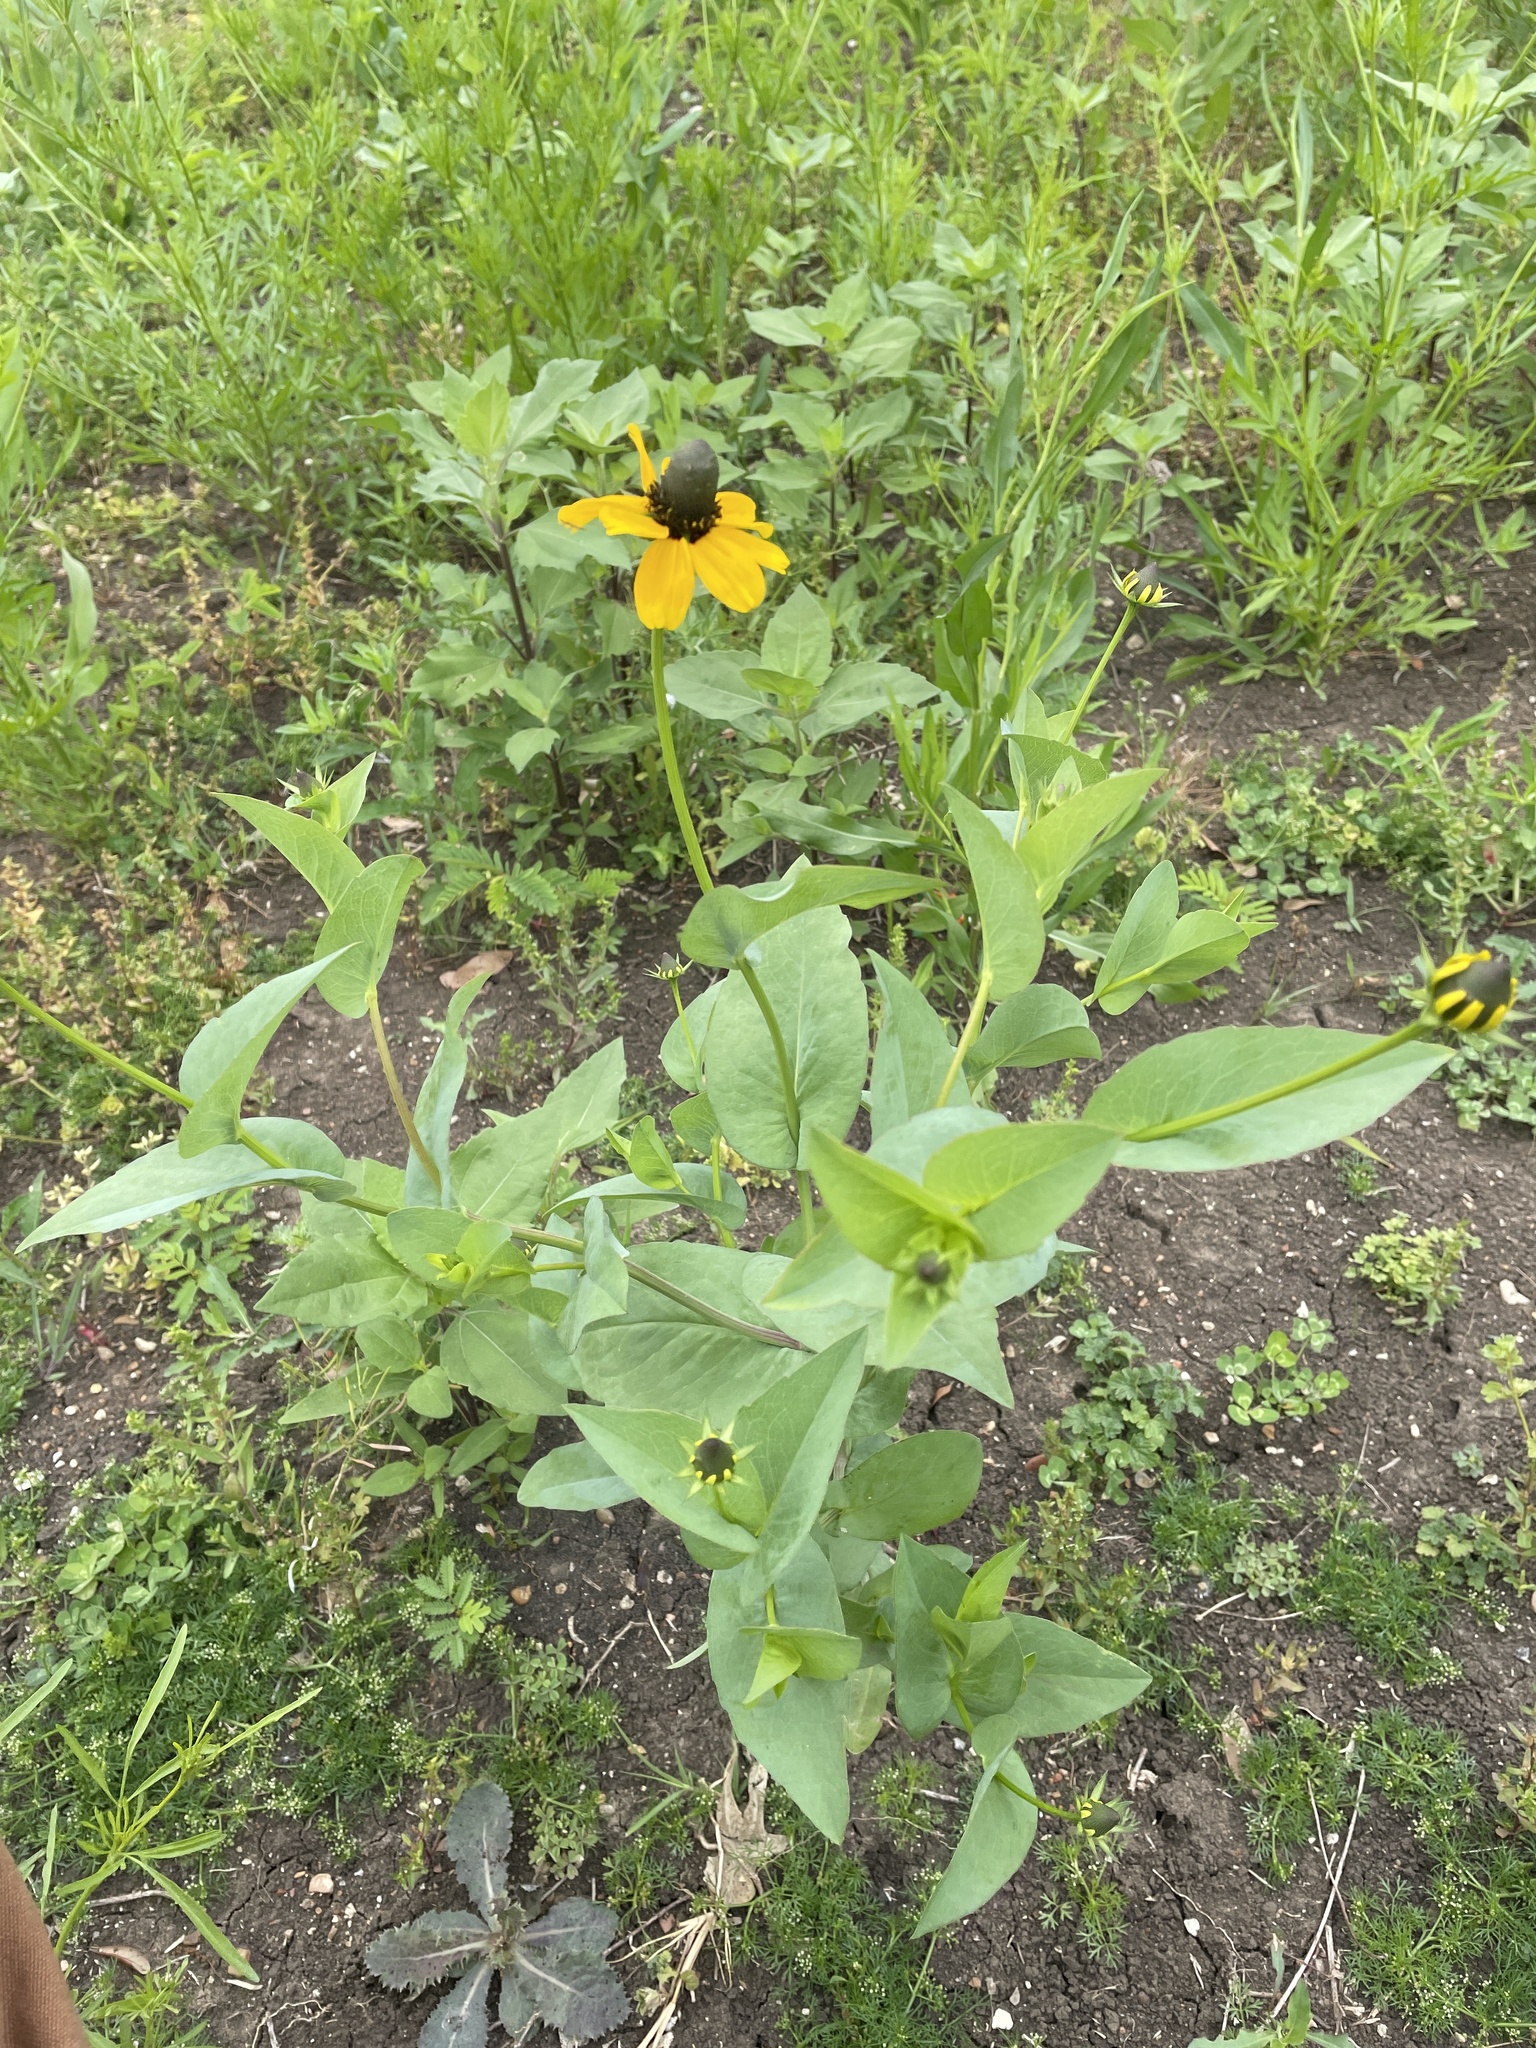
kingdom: Plantae
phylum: Tracheophyta
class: Magnoliopsida
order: Asterales
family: Asteraceae
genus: Rudbeckia
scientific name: Rudbeckia amplexicaulis
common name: Clasping-leaf coneflower
